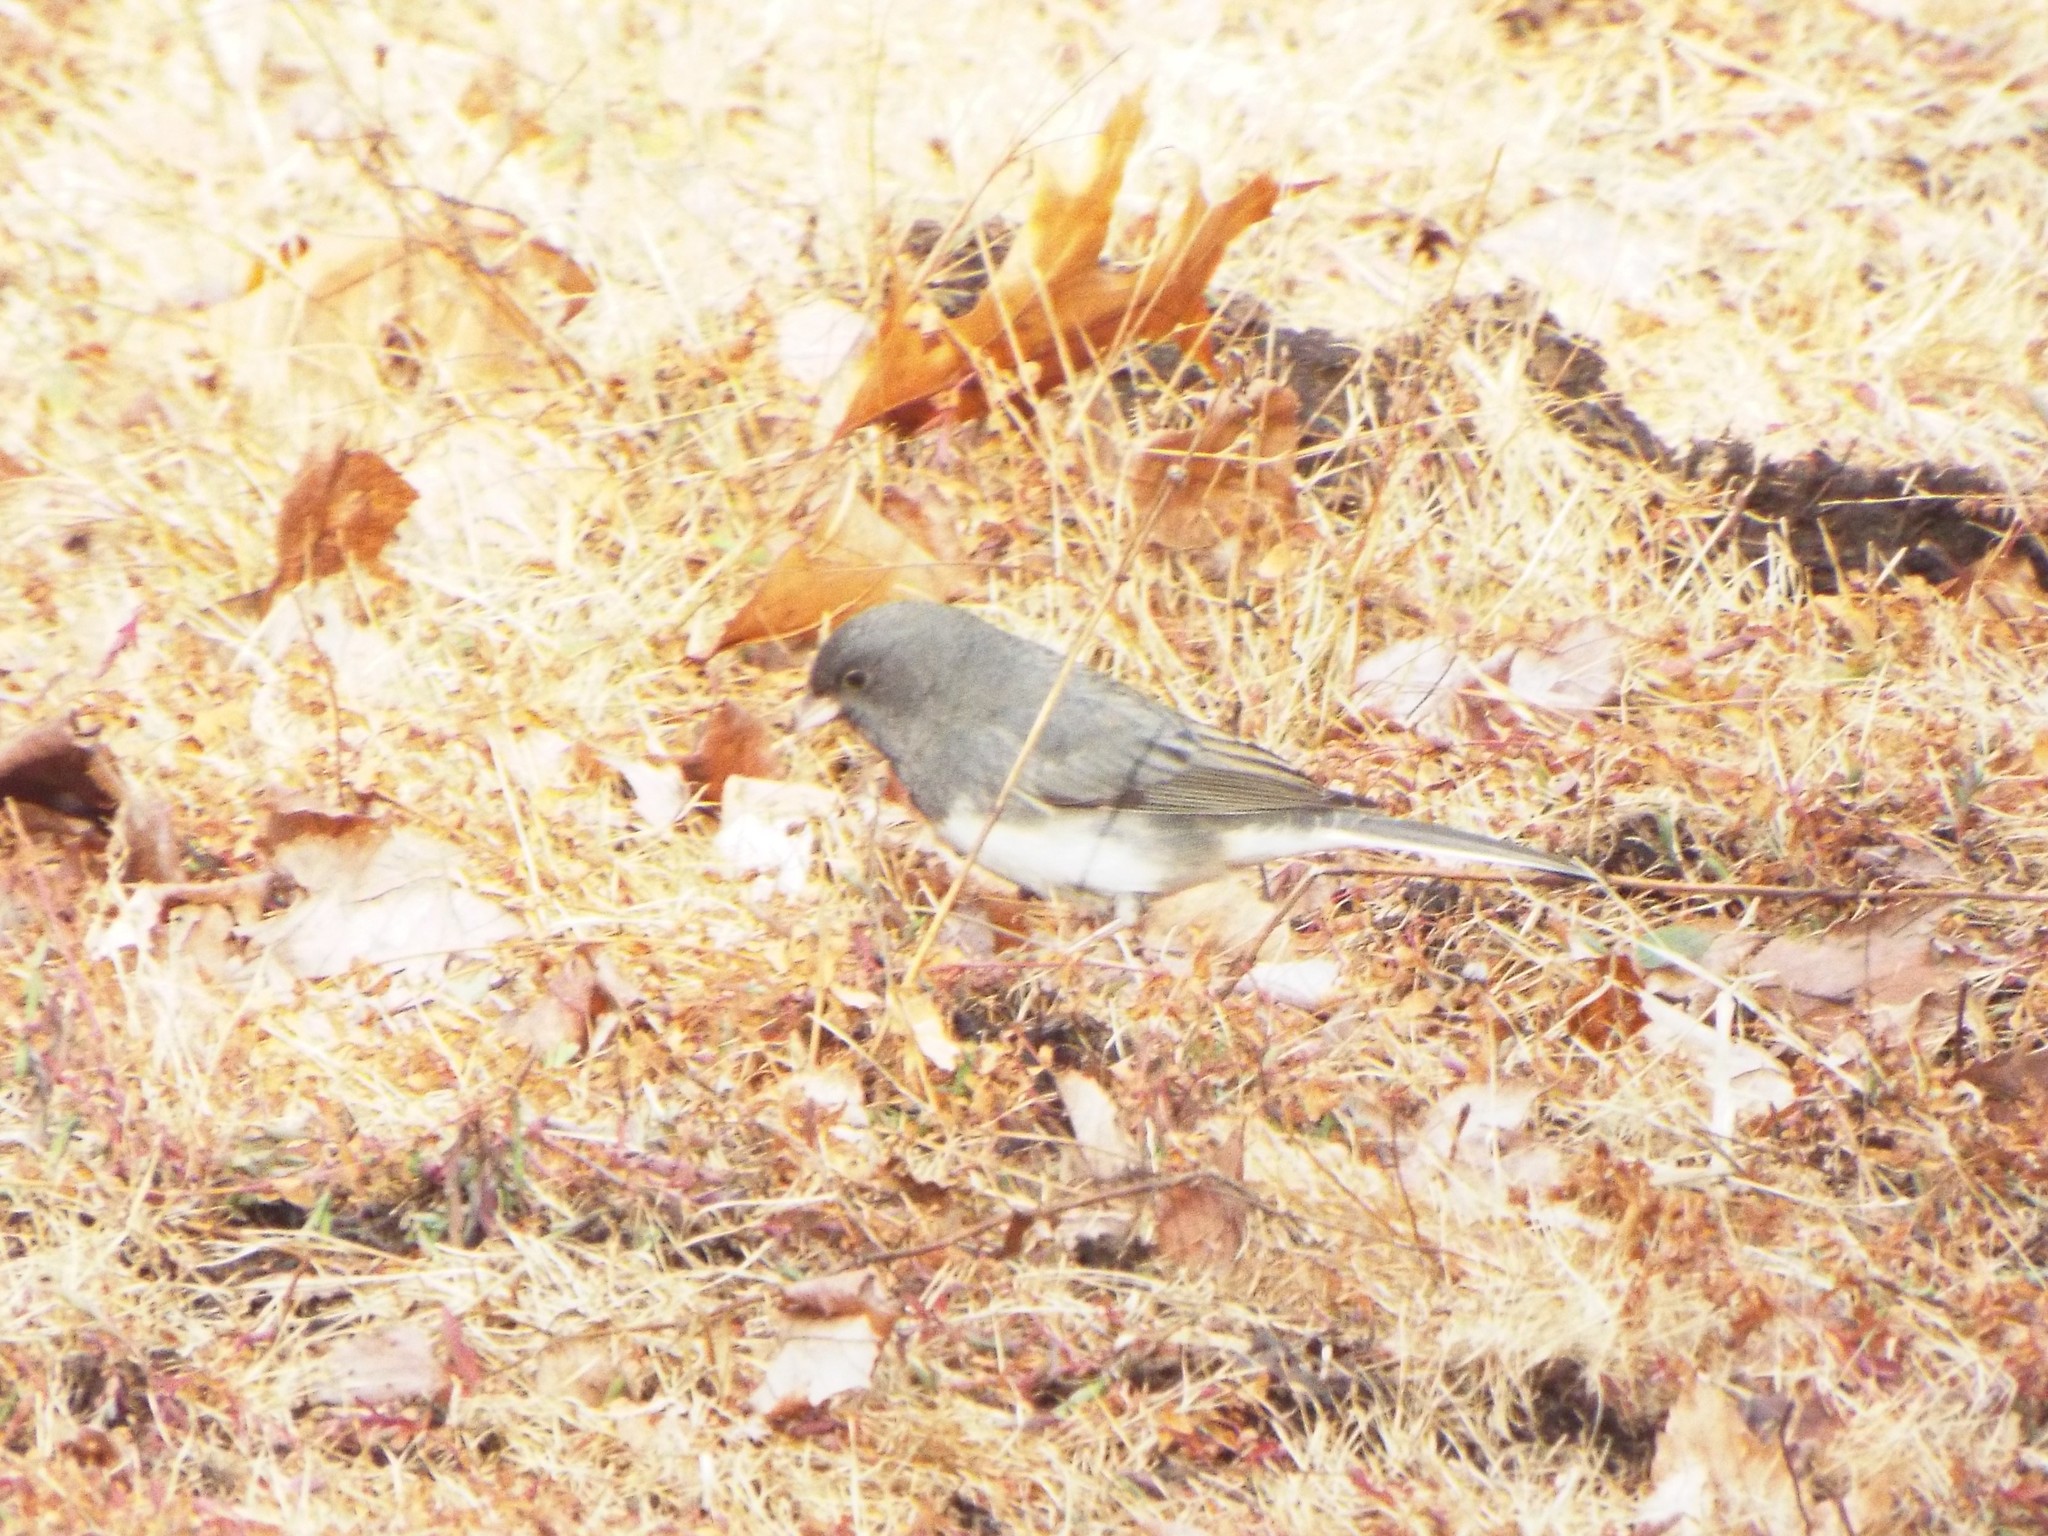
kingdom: Animalia
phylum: Chordata
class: Aves
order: Passeriformes
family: Passerellidae
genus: Junco
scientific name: Junco hyemalis
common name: Dark-eyed junco
